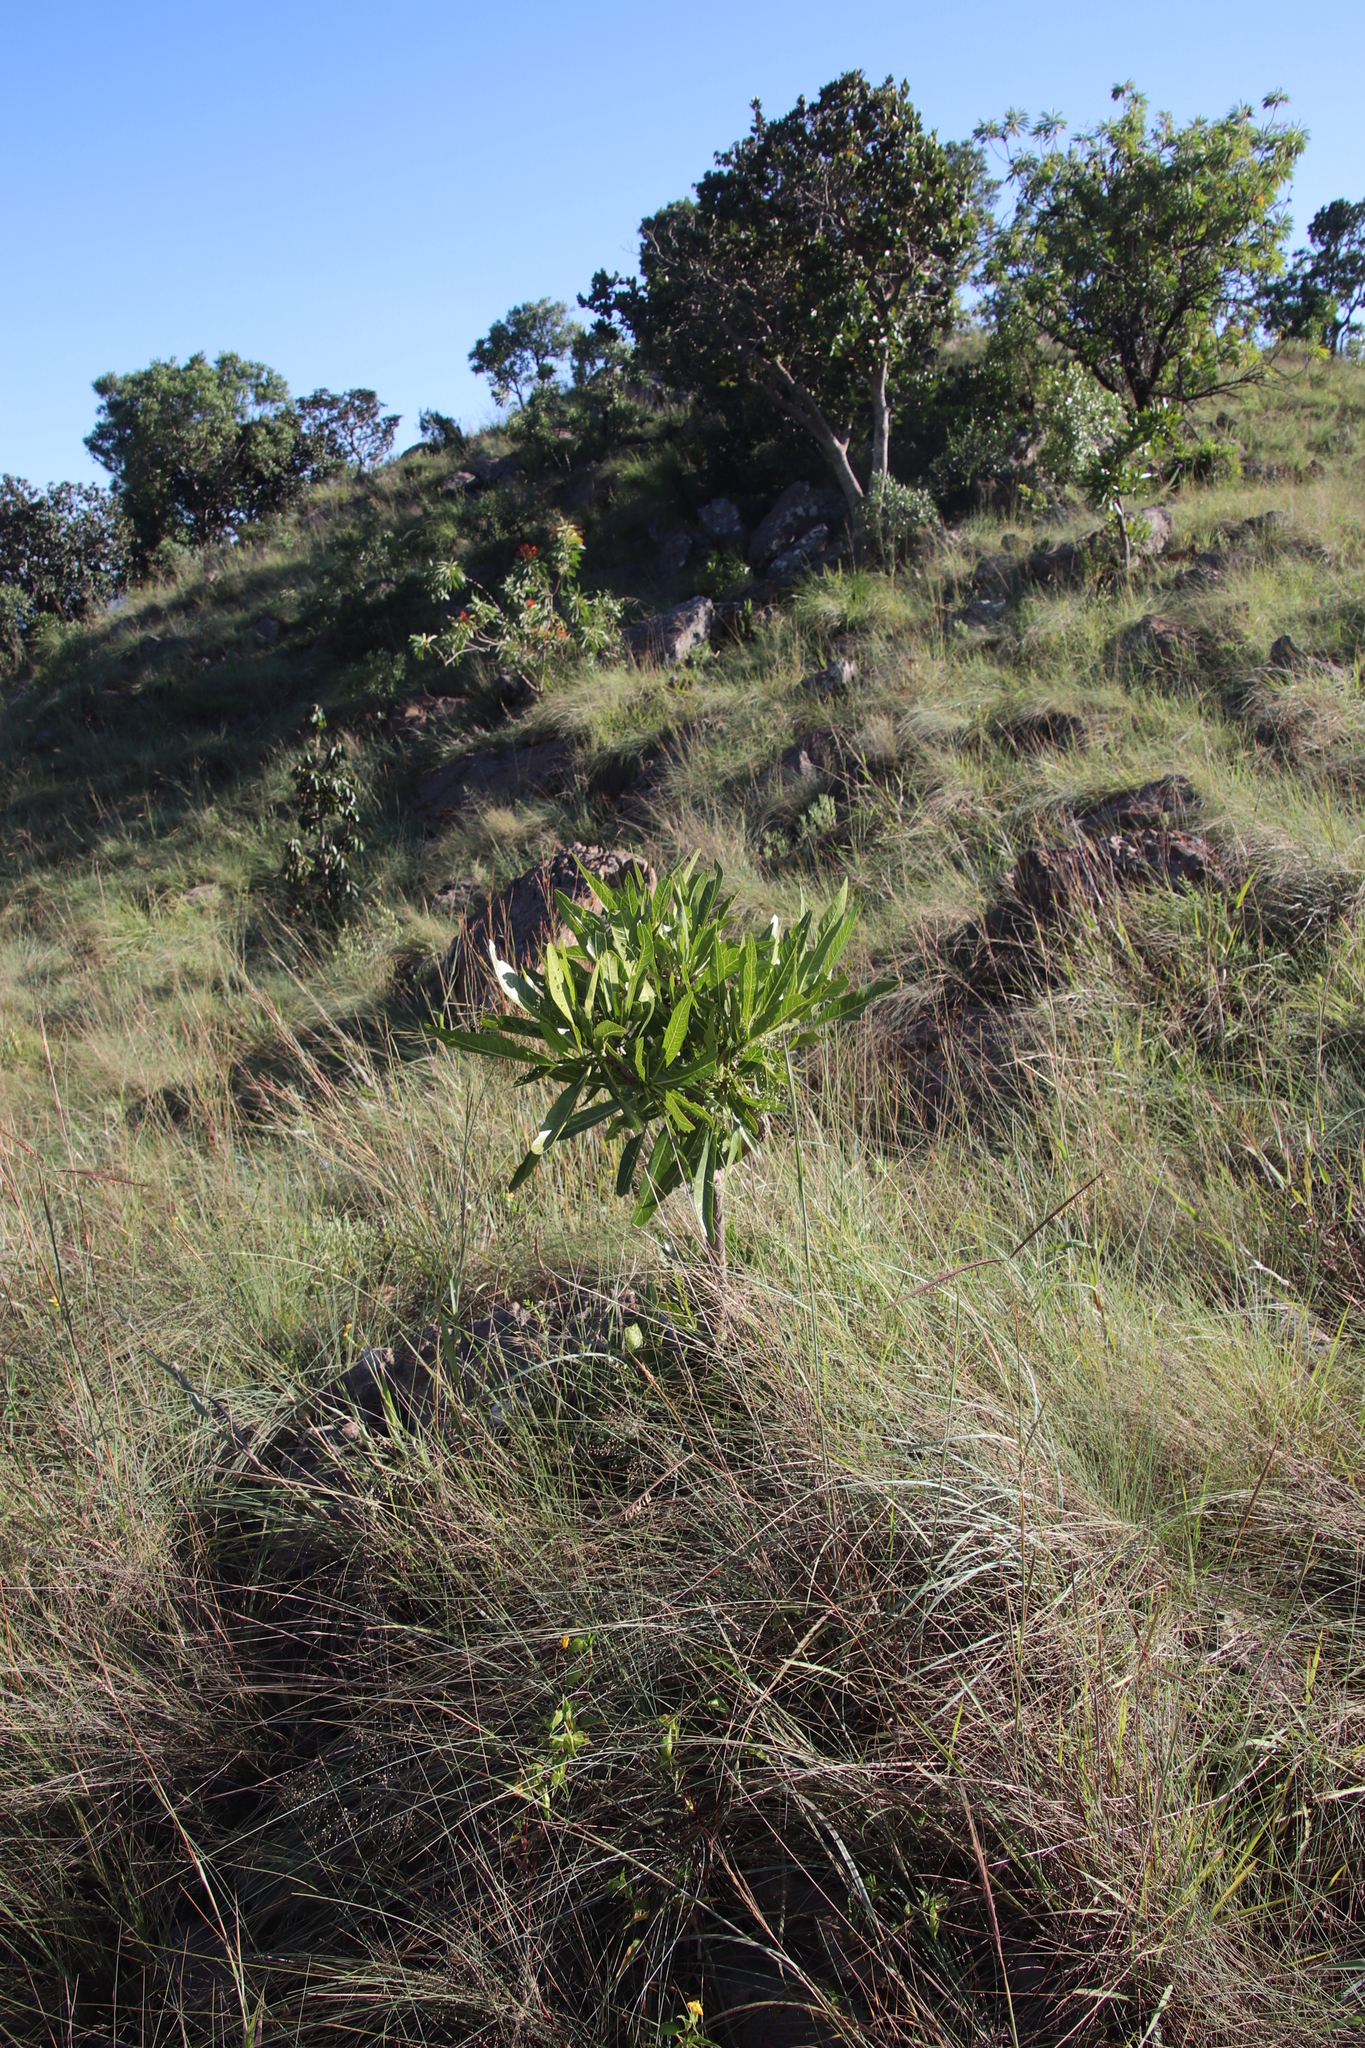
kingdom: Plantae
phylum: Tracheophyta
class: Magnoliopsida
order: Gentianales
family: Rubiaceae
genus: Pavetta
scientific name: Pavetta edentula
